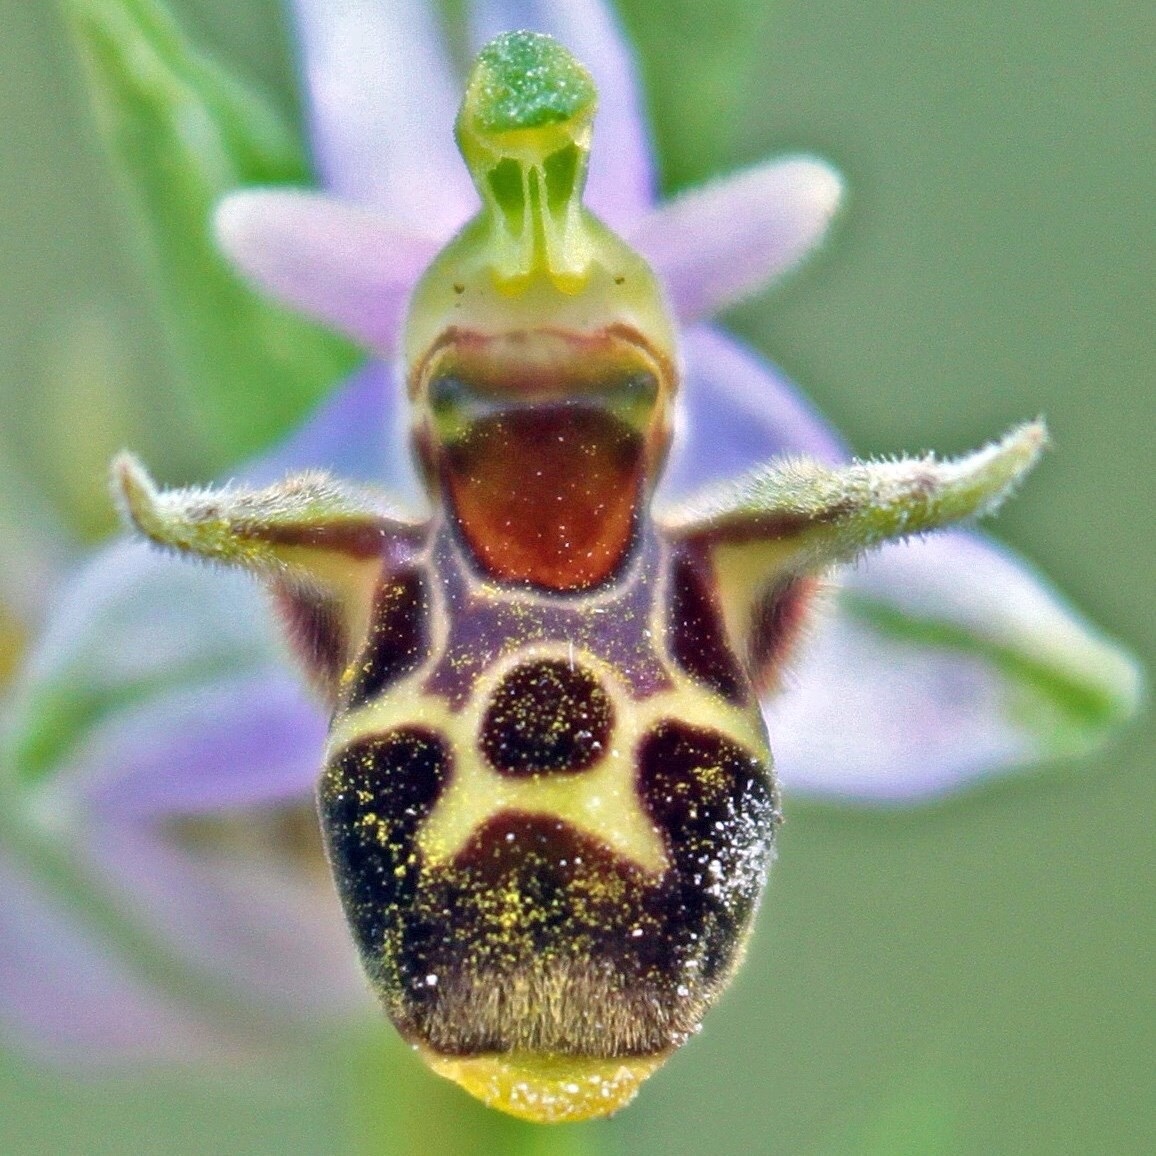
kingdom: Plantae
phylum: Tracheophyta
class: Liliopsida
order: Asparagales
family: Orchidaceae
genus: Ophrys
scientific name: Ophrys scolopax
